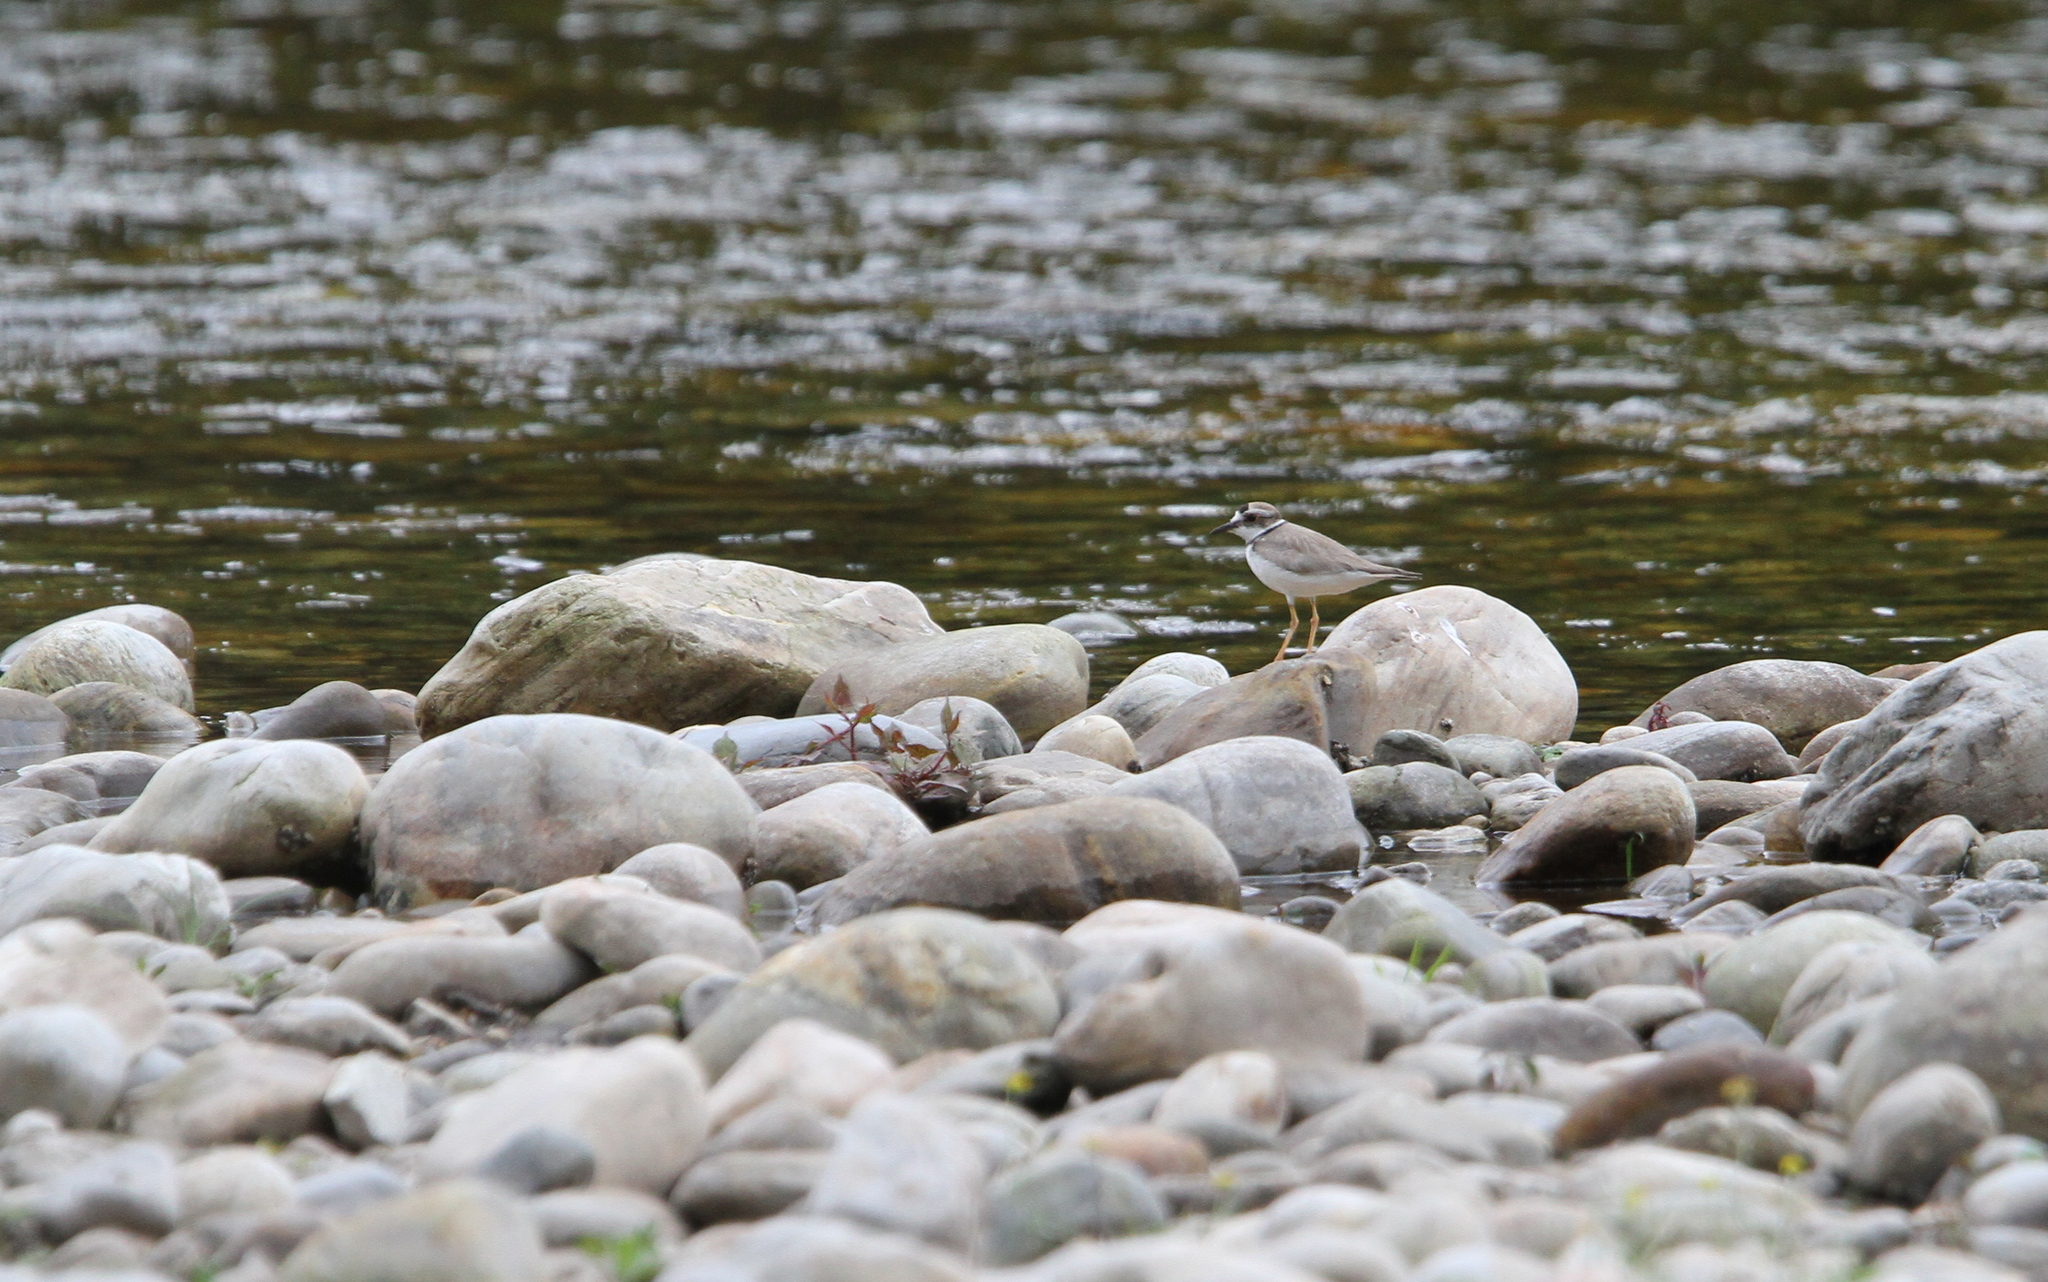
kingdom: Animalia
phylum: Chordata
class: Aves
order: Charadriiformes
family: Charadriidae
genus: Charadrius
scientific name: Charadrius placidus
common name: Long-billed plover
